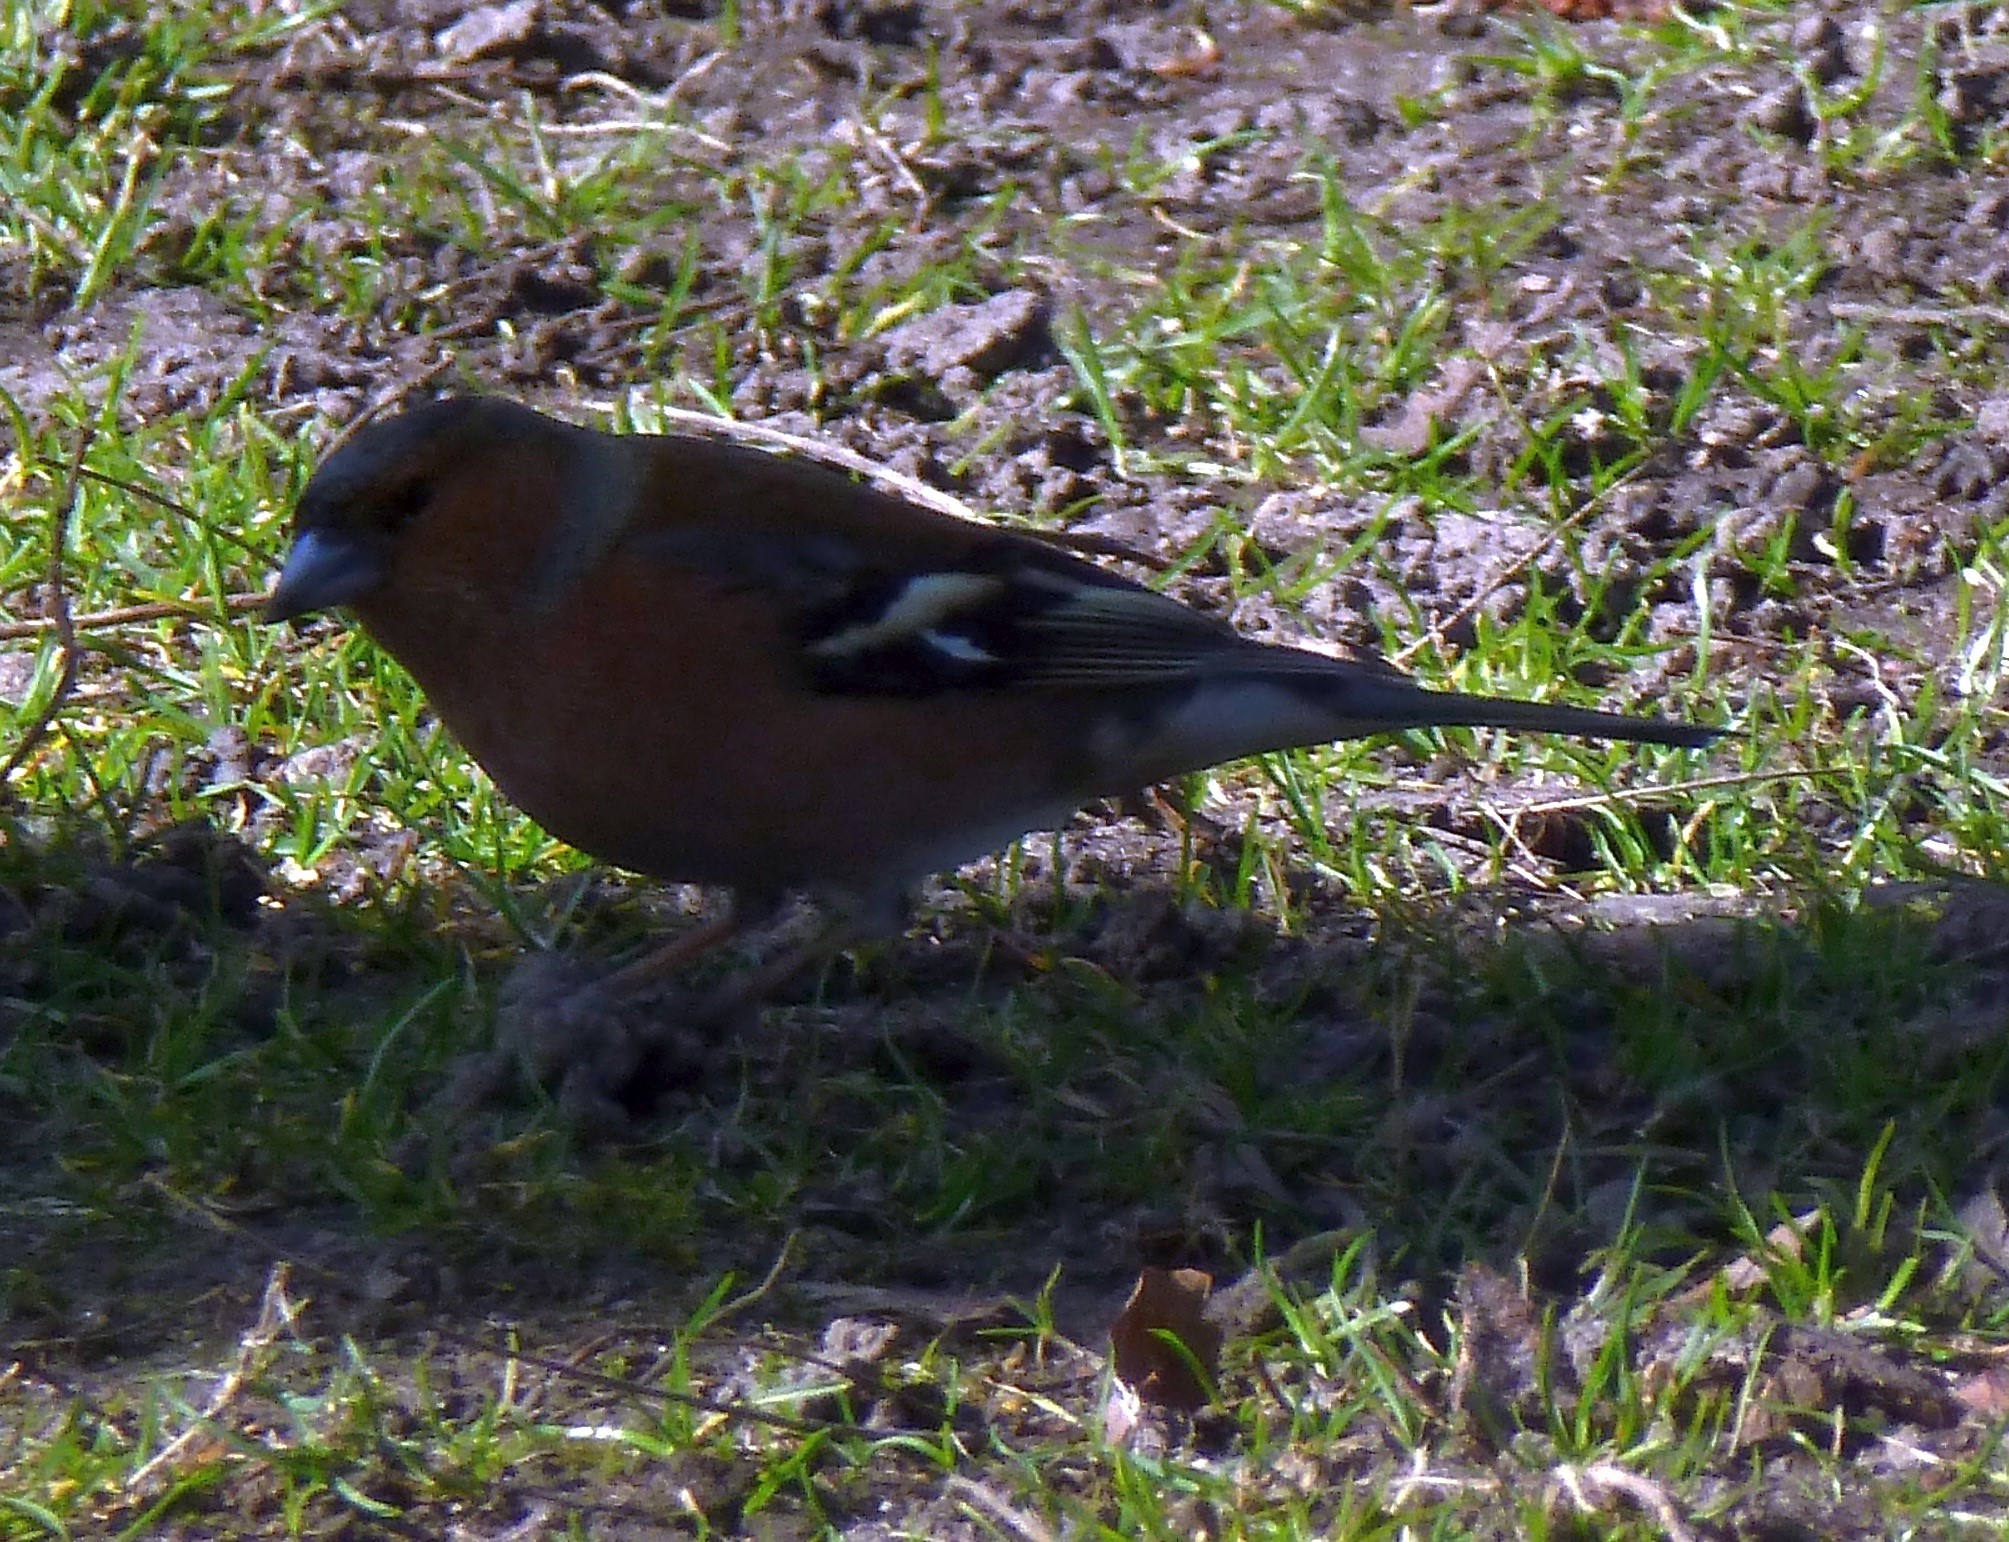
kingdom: Animalia
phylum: Chordata
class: Aves
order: Passeriformes
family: Fringillidae
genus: Fringilla
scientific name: Fringilla coelebs
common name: Common chaffinch
